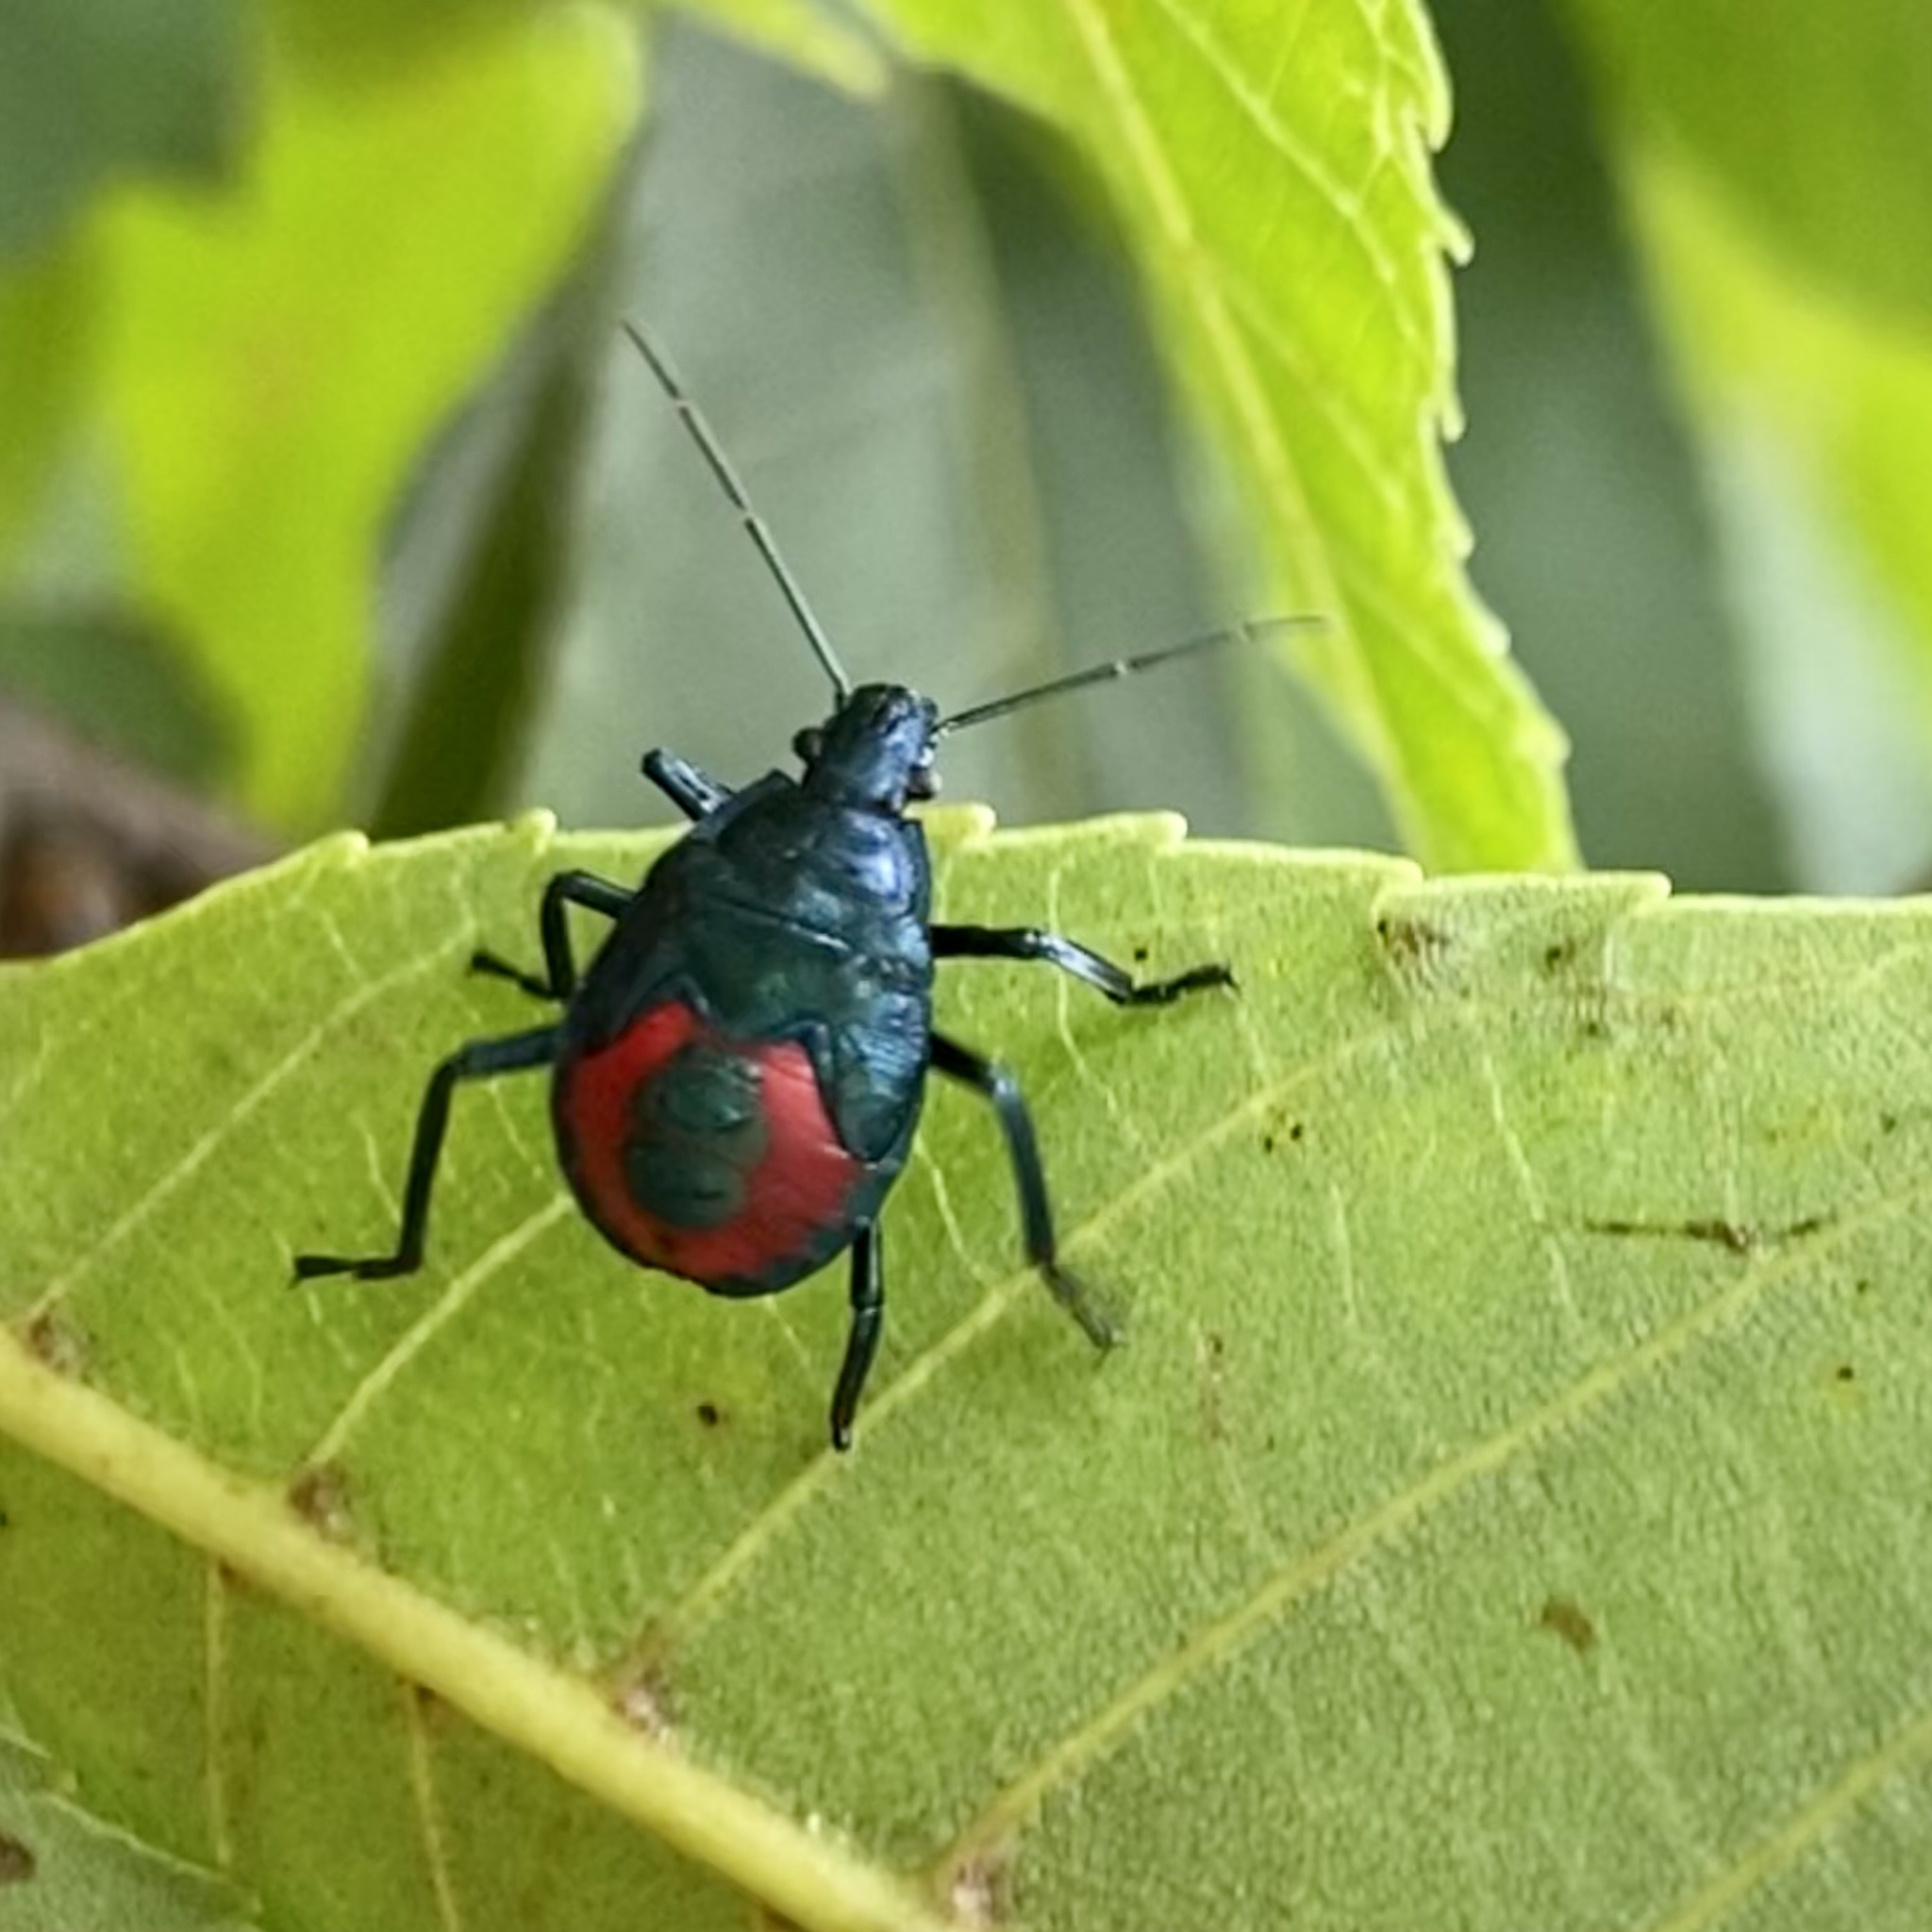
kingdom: Animalia
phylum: Arthropoda
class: Insecta
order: Hemiptera
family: Pentatomidae
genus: Euthyrhynchus
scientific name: Euthyrhynchus floridanus
